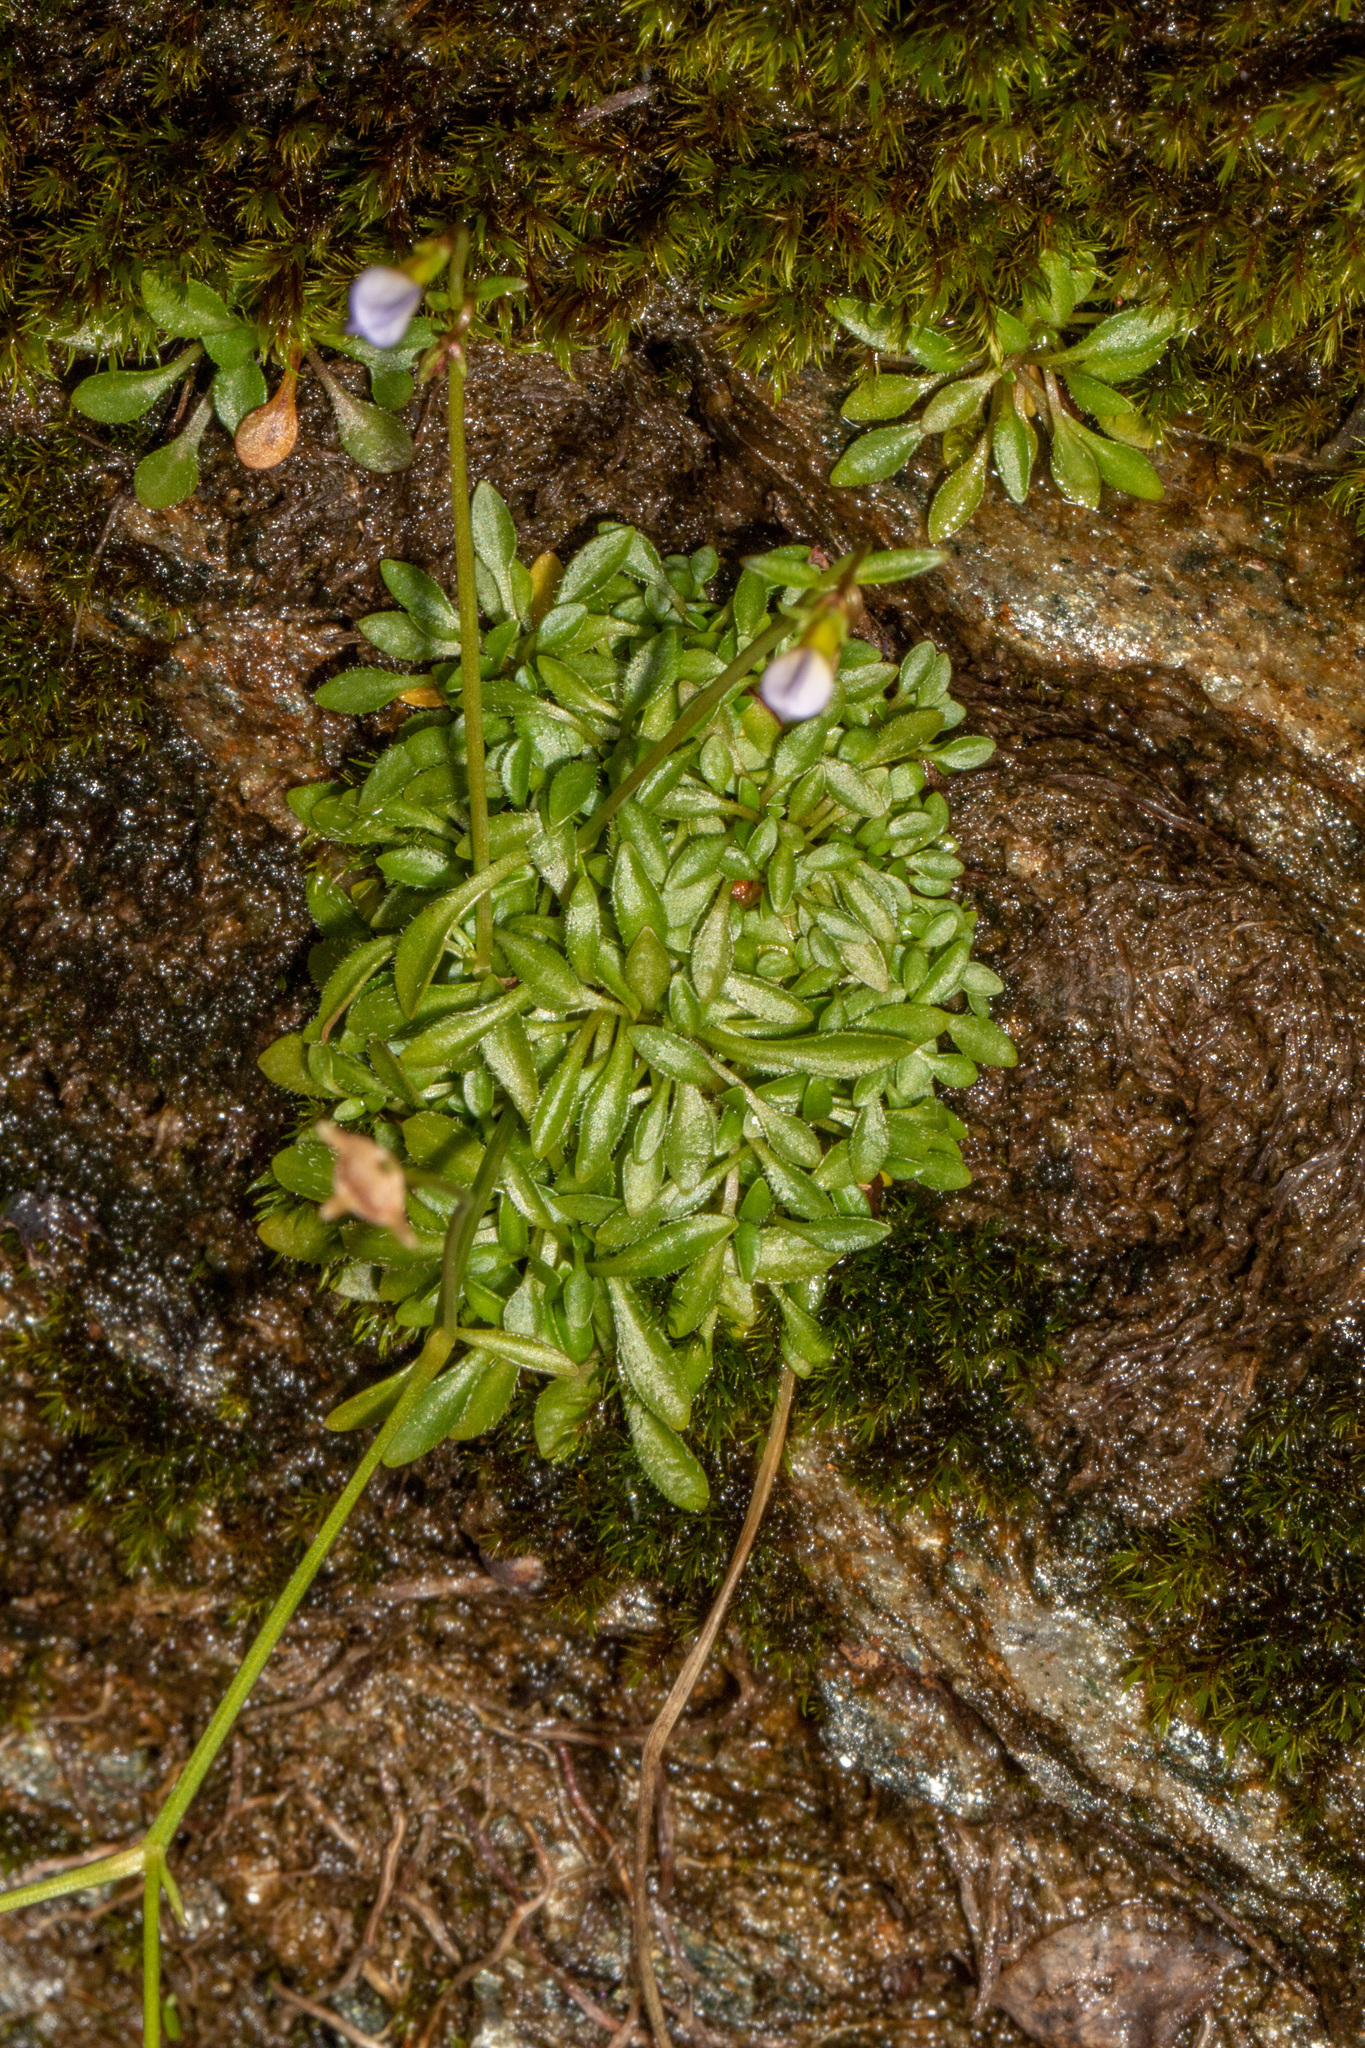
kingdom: Plantae
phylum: Tracheophyta
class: Magnoliopsida
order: Gentianales
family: Rubiaceae
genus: Houstonia
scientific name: Houstonia caerulea
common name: Bluets
